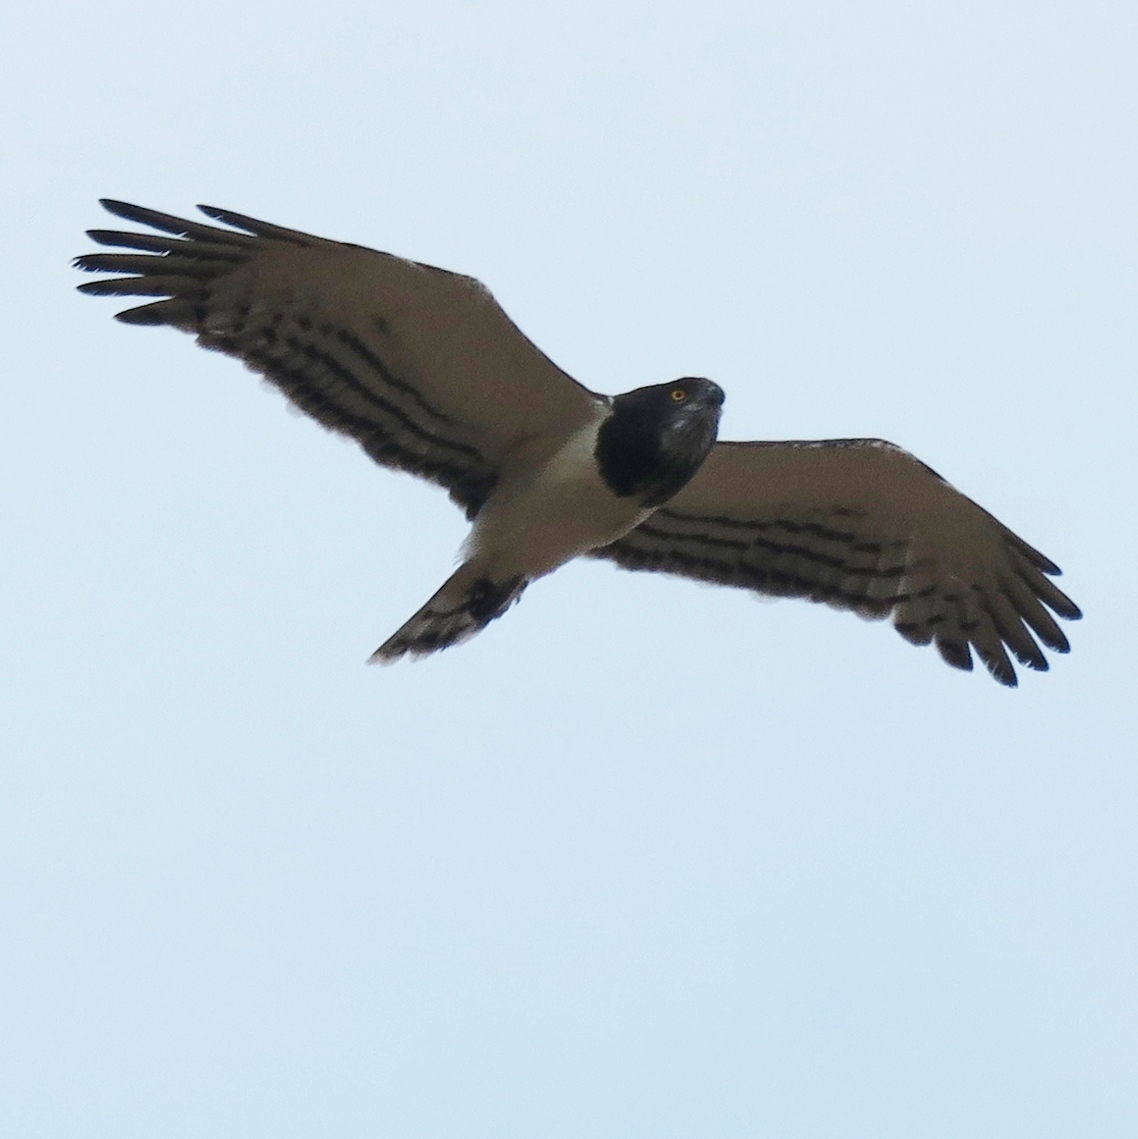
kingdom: Animalia
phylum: Chordata
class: Aves
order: Accipitriformes
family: Accipitridae
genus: Circaetus
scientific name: Circaetus pectoralis
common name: Black-chested snake eagle
